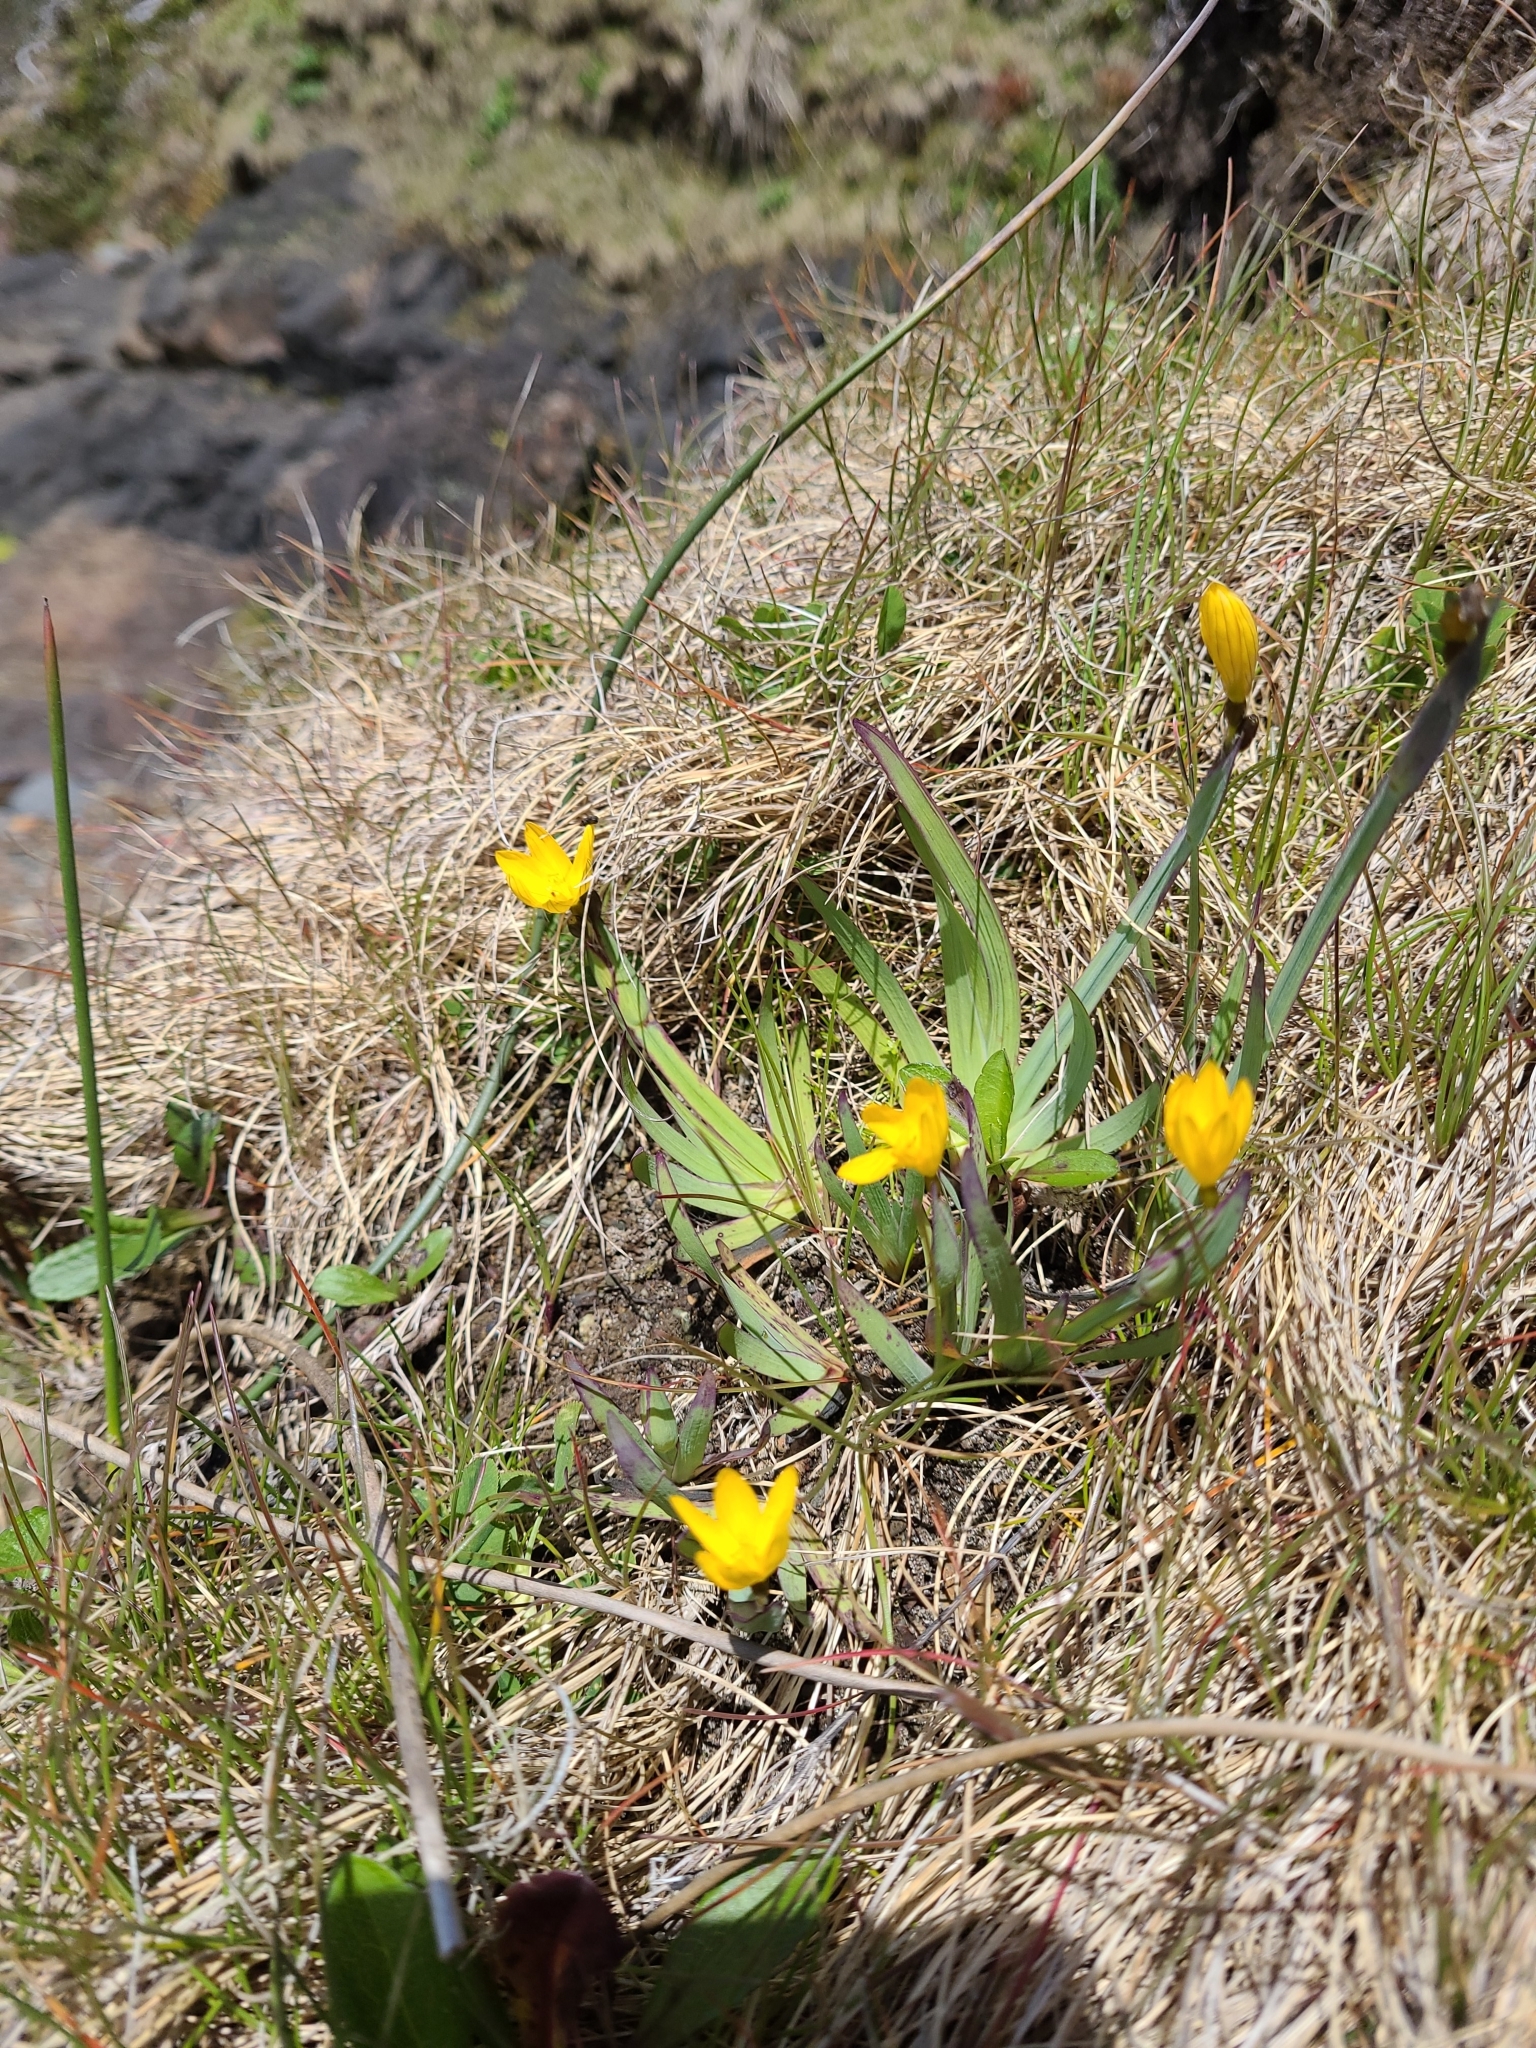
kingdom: Plantae
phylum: Tracheophyta
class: Liliopsida
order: Asparagales
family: Iridaceae
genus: Sisyrinchium
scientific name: Sisyrinchium californicum
